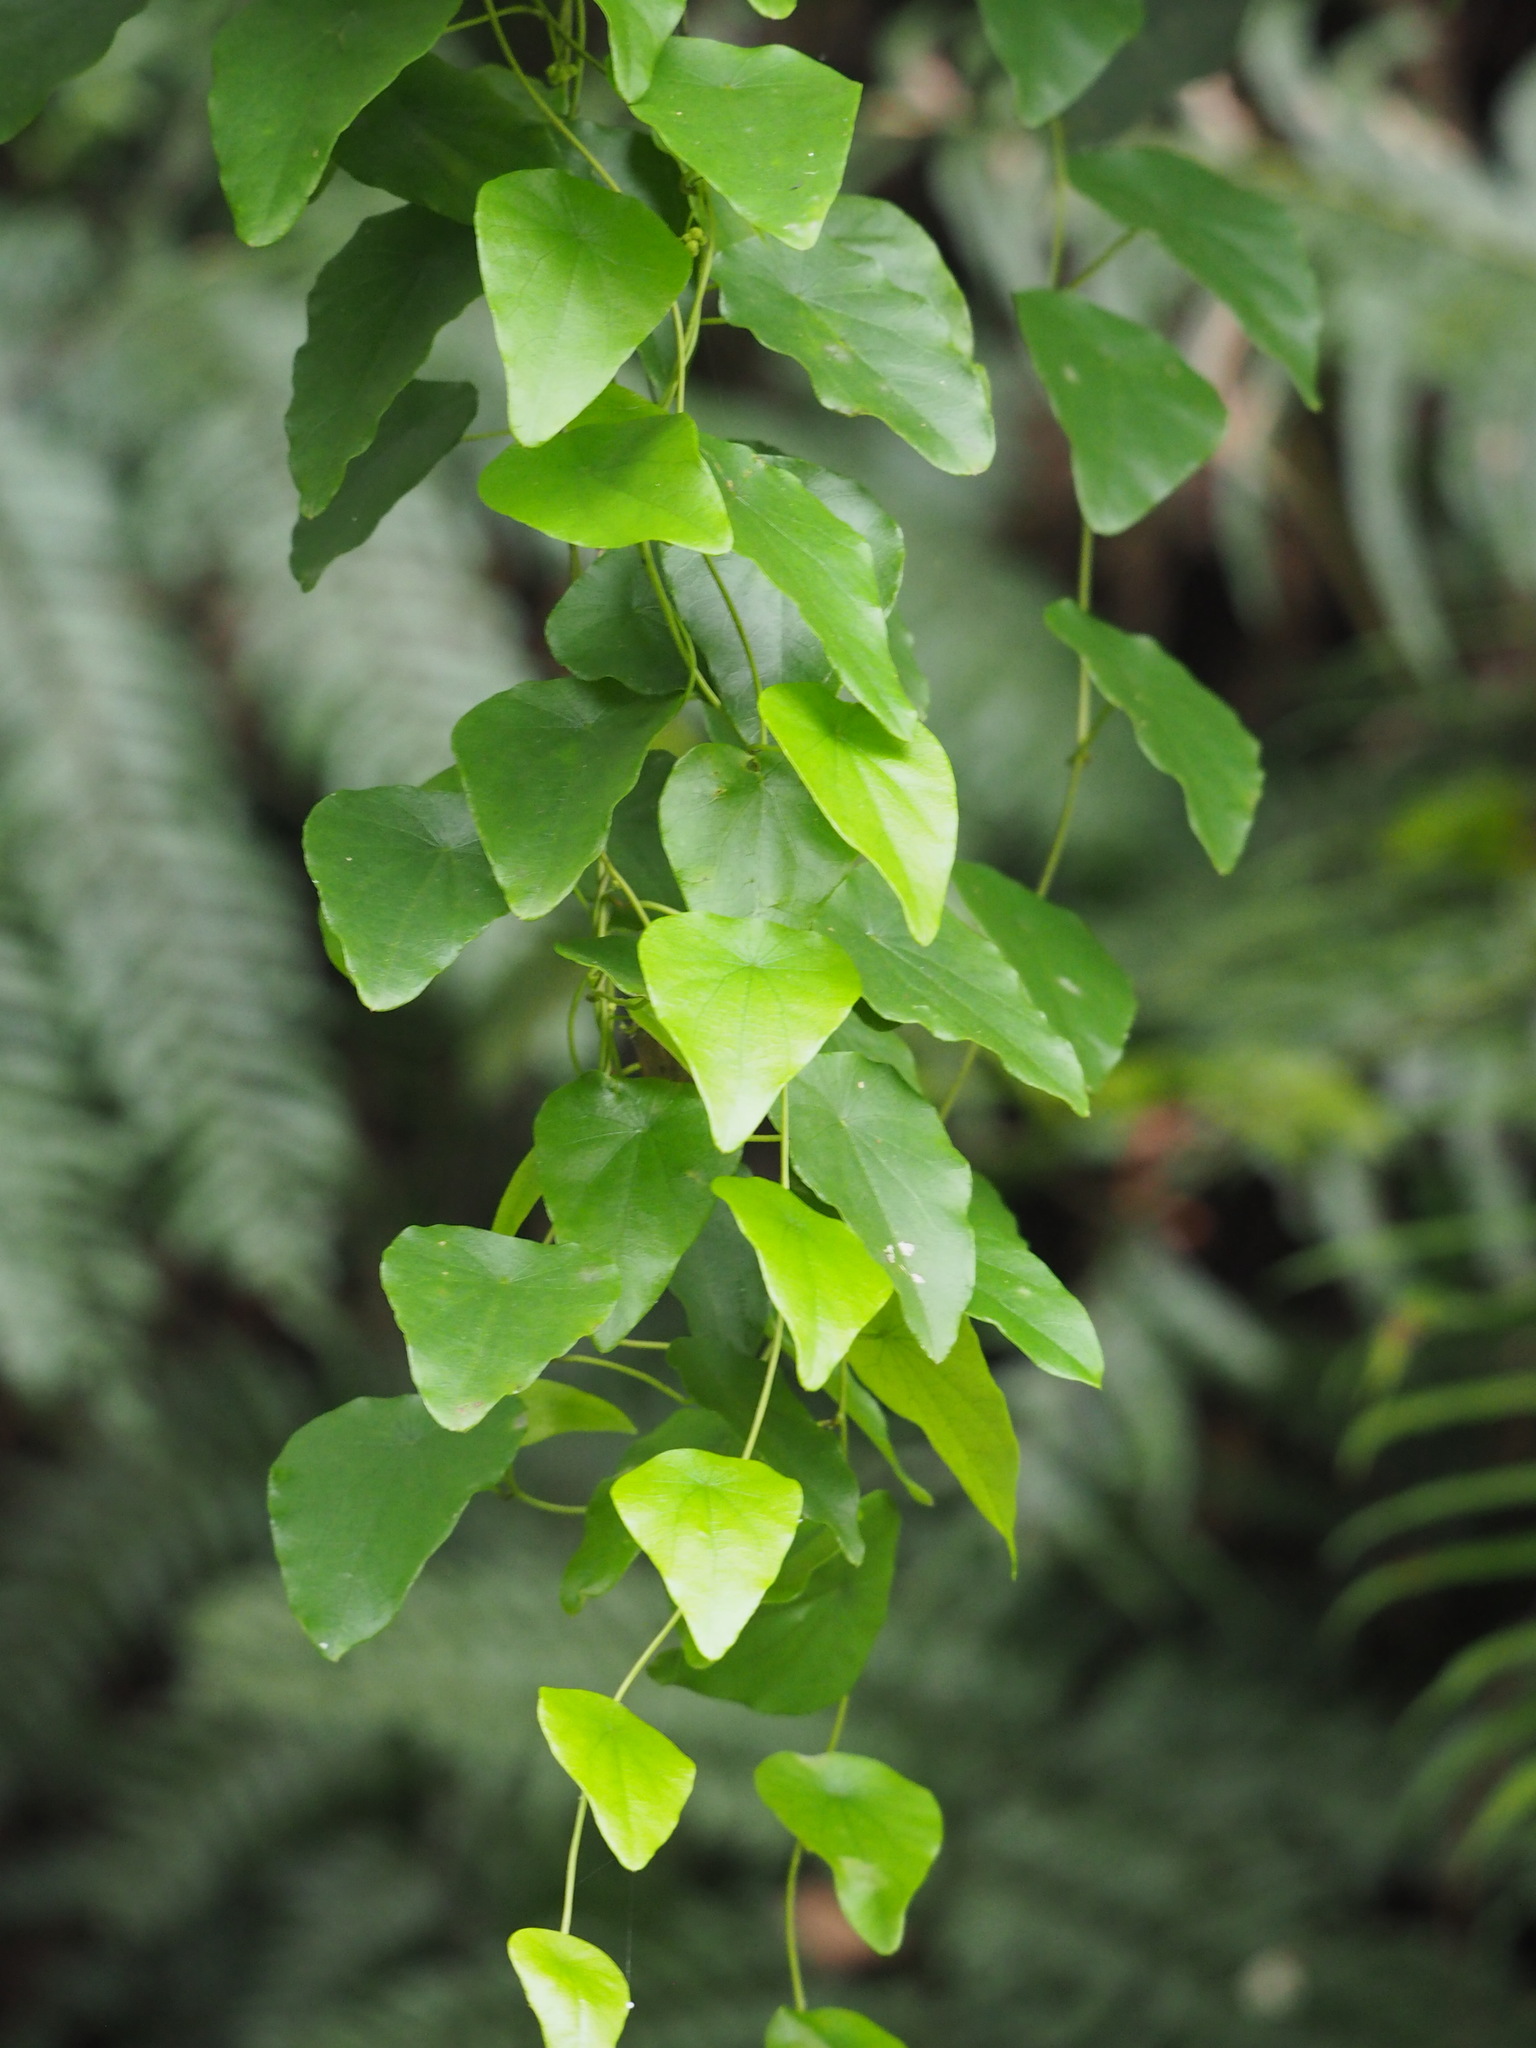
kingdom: Plantae
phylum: Tracheophyta
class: Magnoliopsida
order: Ranunculales
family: Menispermaceae
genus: Stephania
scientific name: Stephania japonica
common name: Snake vine
